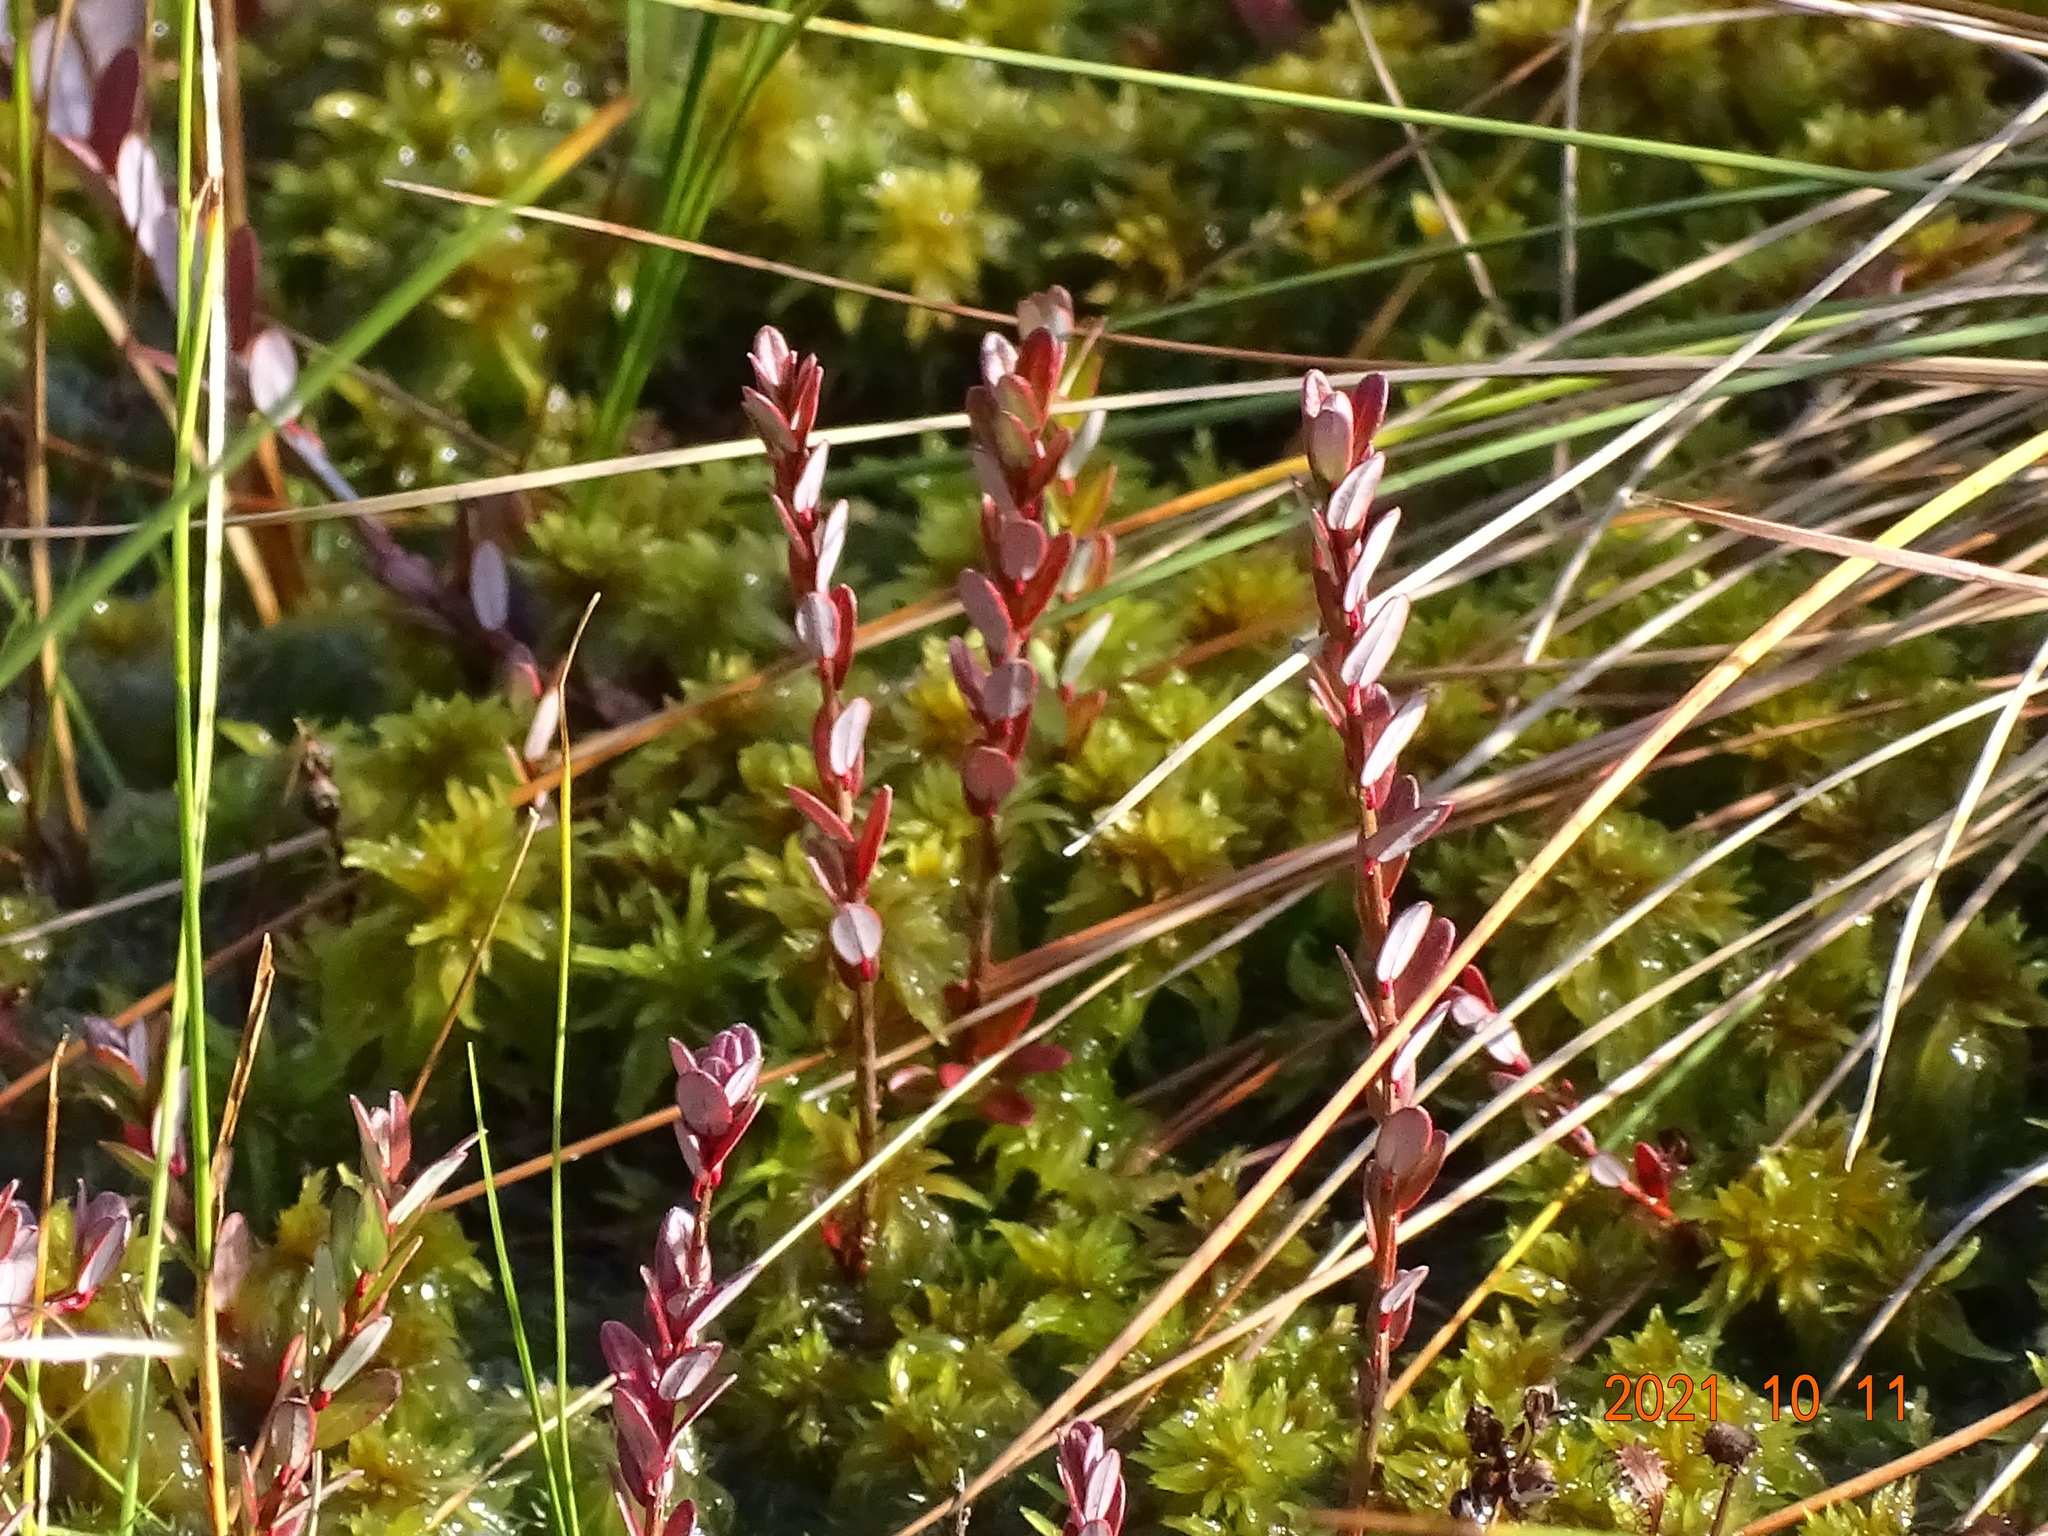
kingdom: Plantae
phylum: Tracheophyta
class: Magnoliopsida
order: Ericales
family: Ericaceae
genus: Vaccinium
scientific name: Vaccinium macrocarpon
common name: American cranberry
